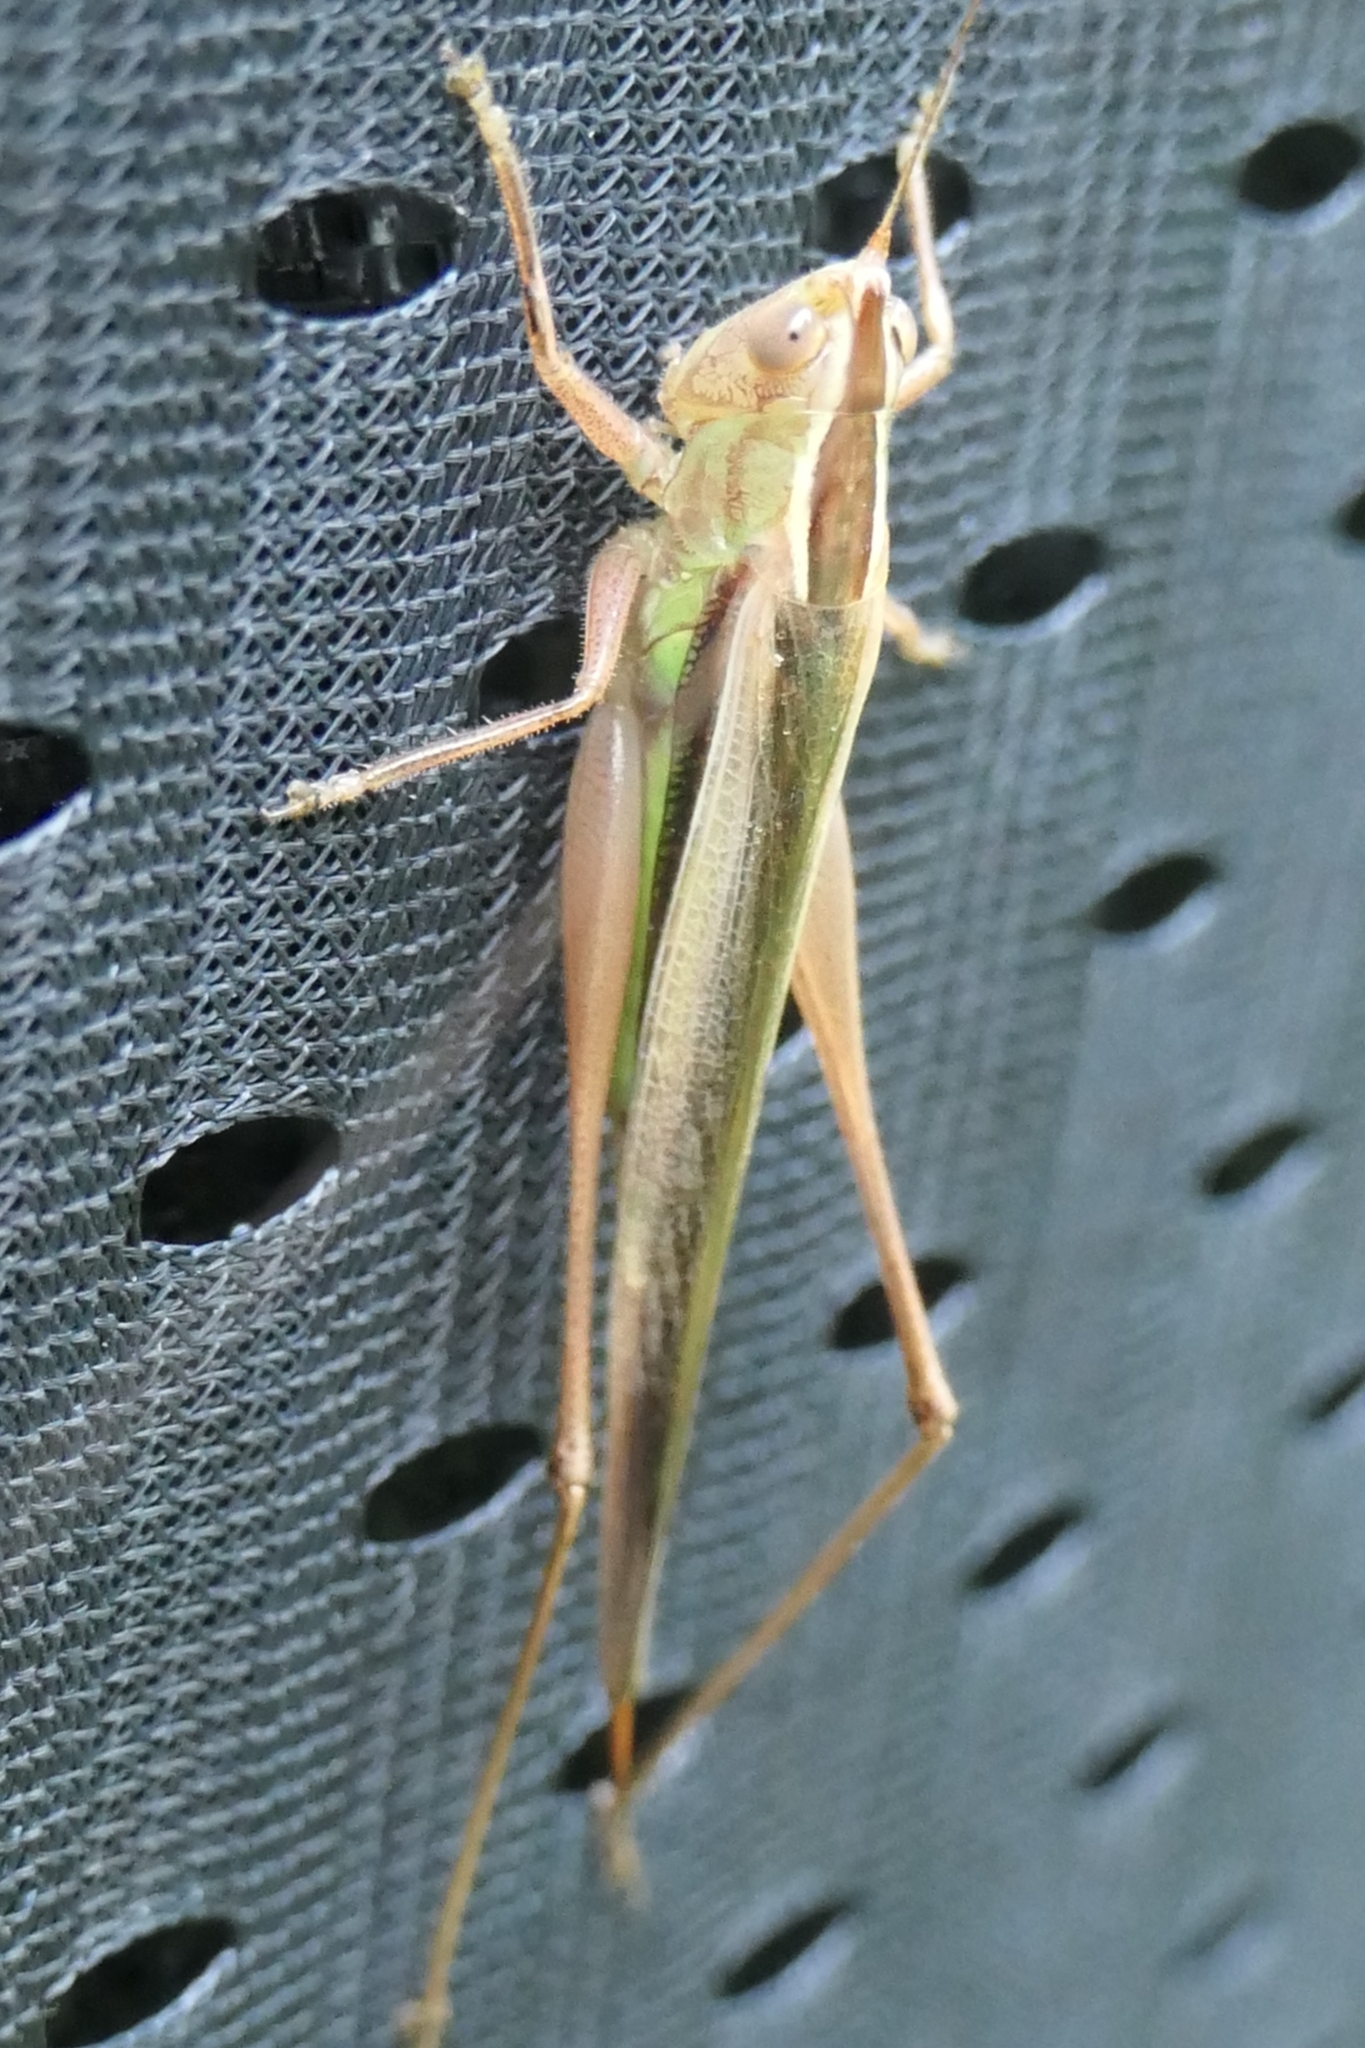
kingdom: Animalia
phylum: Arthropoda
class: Insecta
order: Orthoptera
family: Tettigoniidae
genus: Conocephalus
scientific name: Conocephalus albescens
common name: Whitish meadow katydid
